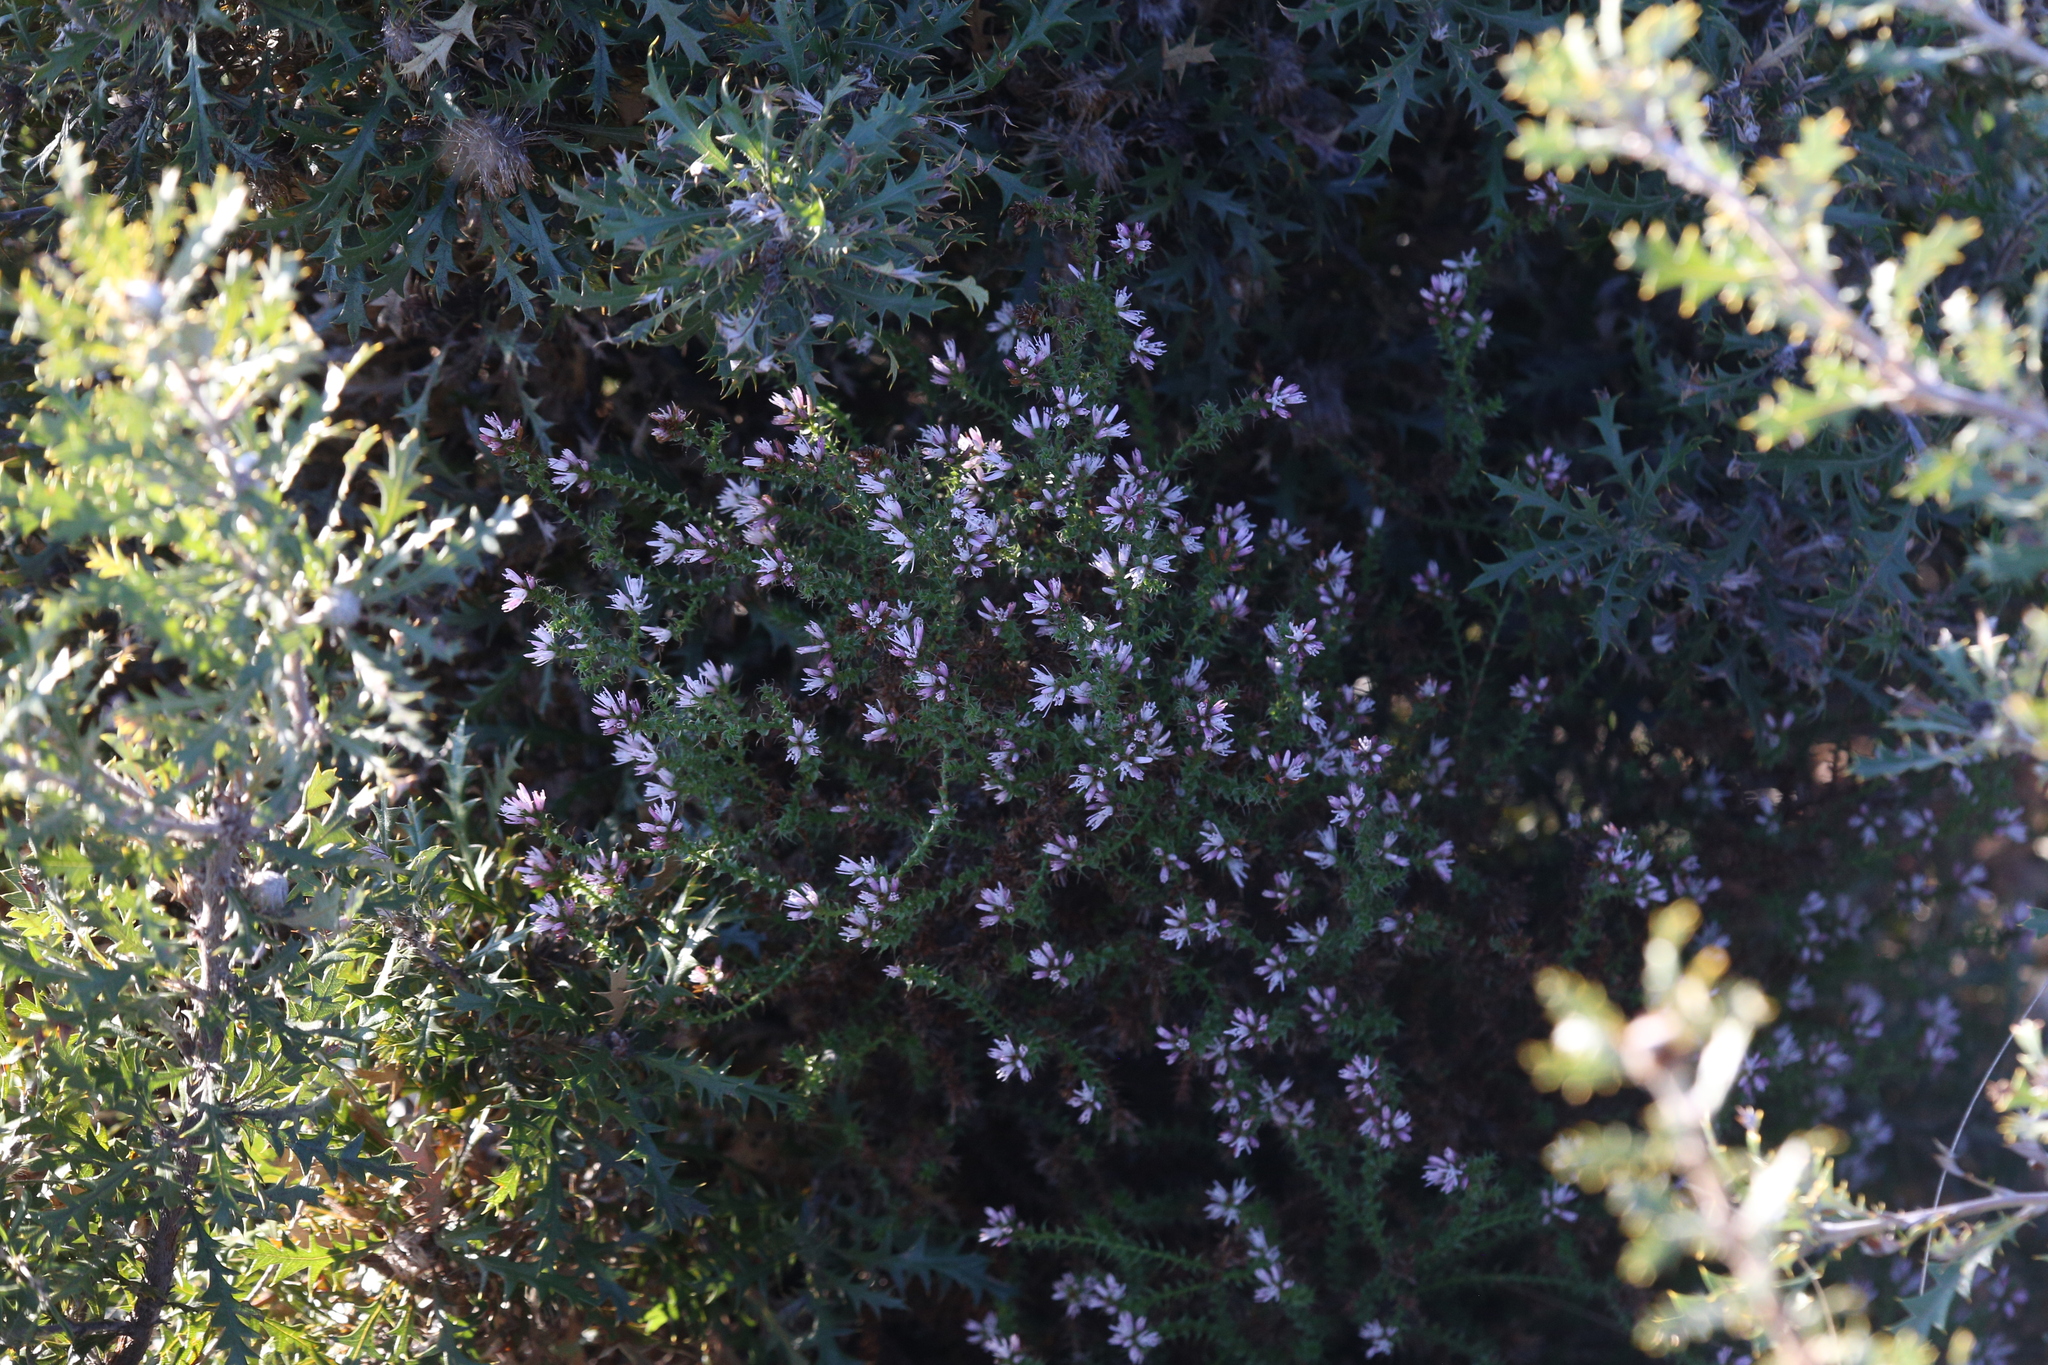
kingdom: Plantae
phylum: Tracheophyta
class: Magnoliopsida
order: Ericales
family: Ericaceae
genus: Andersonia
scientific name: Andersonia lehmanniana
